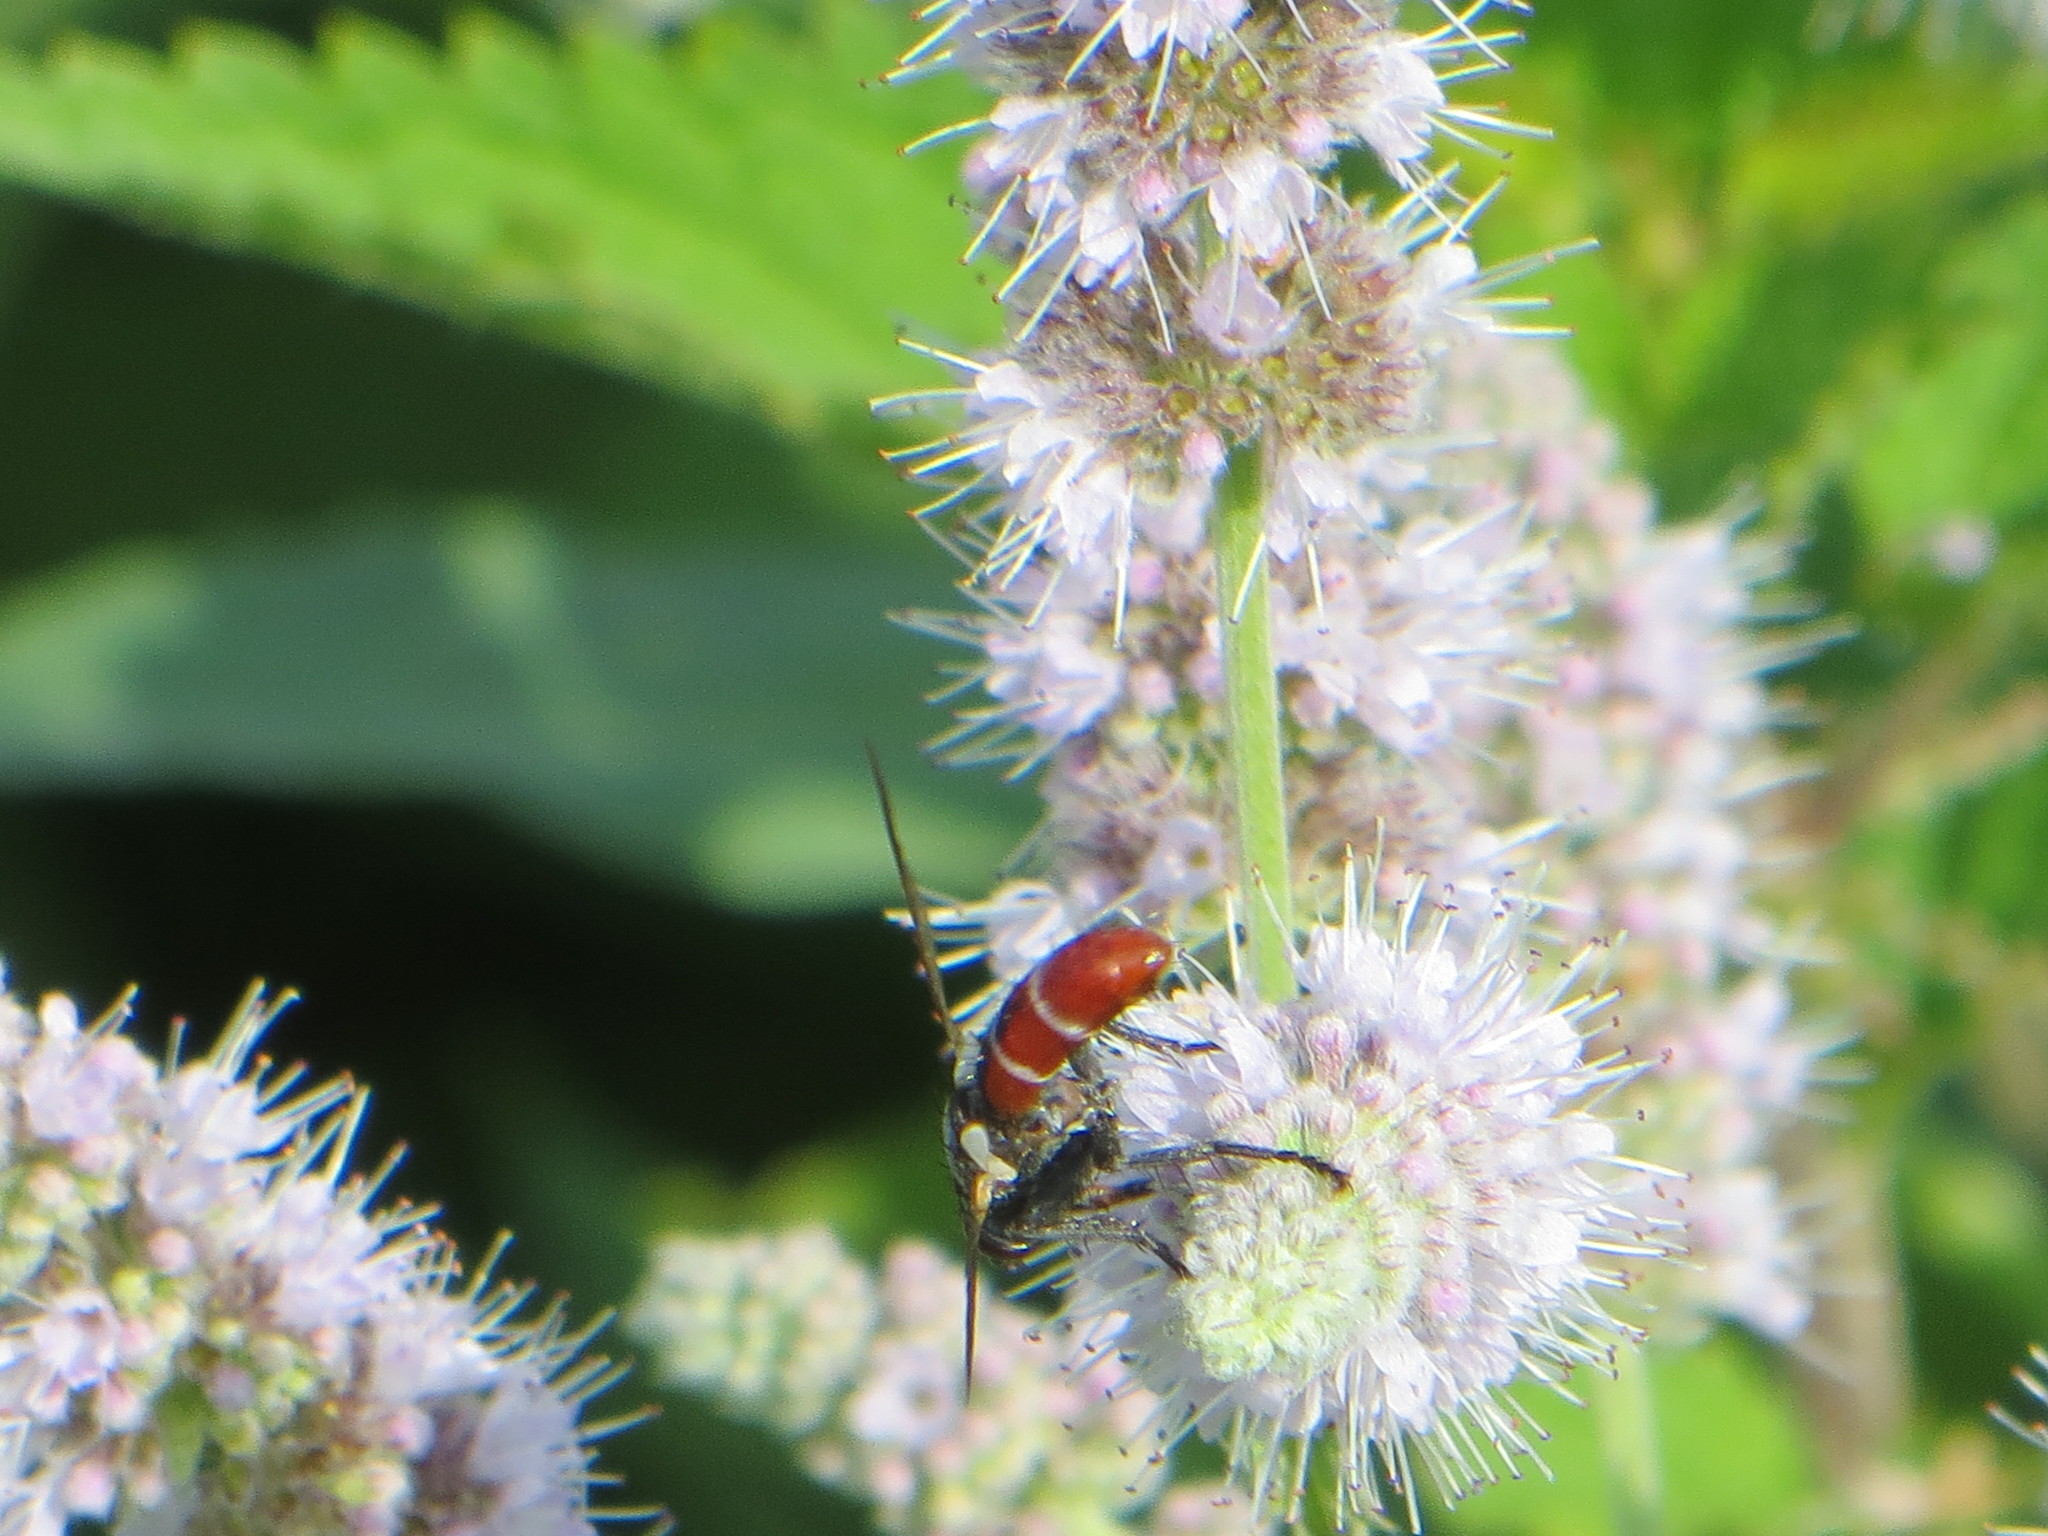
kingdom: Animalia
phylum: Arthropoda
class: Insecta
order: Diptera
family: Tachinidae
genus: Cylindromyia
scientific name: Cylindromyia bicolor
